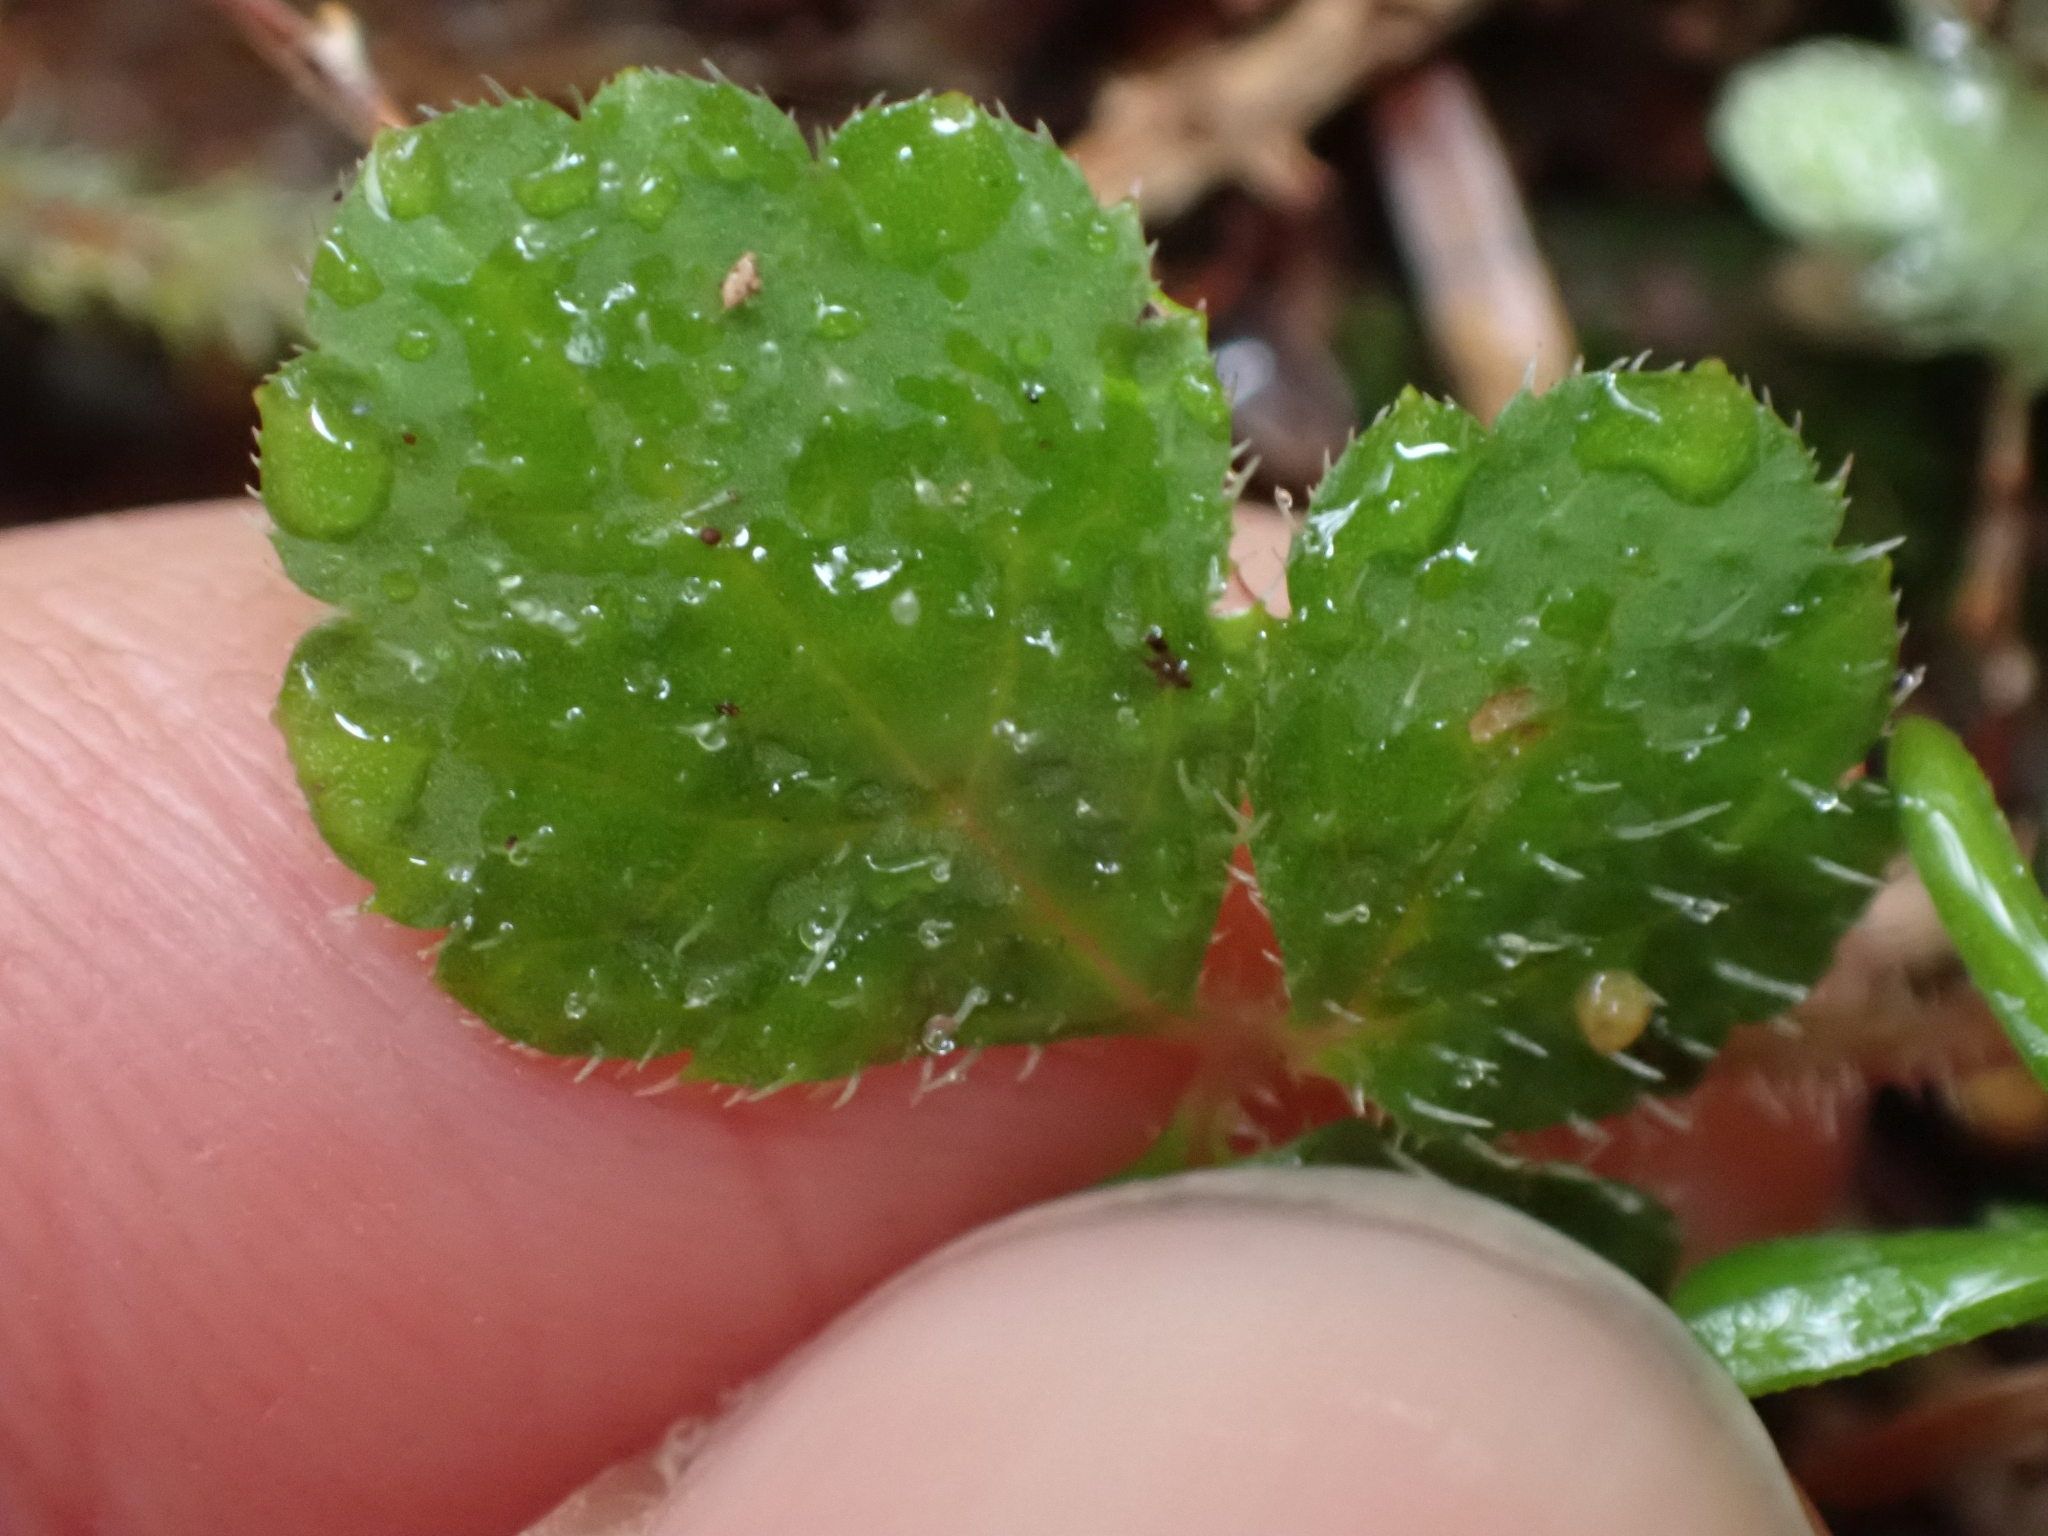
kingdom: Plantae
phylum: Tracheophyta
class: Magnoliopsida
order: Saxifragales
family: Saxifragaceae
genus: Tiarella
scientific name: Tiarella trifoliata
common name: Sugar-scoop
